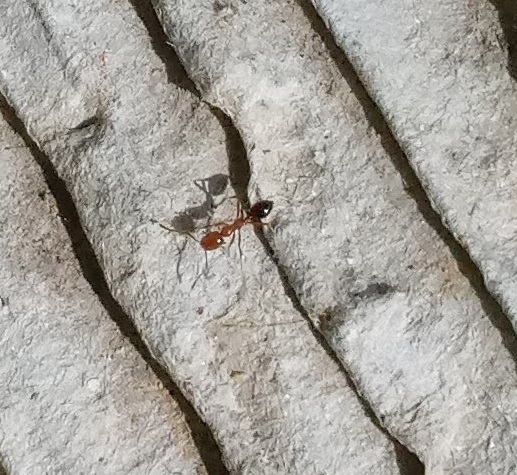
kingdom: Animalia
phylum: Arthropoda
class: Insecta
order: Hymenoptera
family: Formicidae
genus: Monomorium
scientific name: Monomorium destructor
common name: Destructive trailing ant
